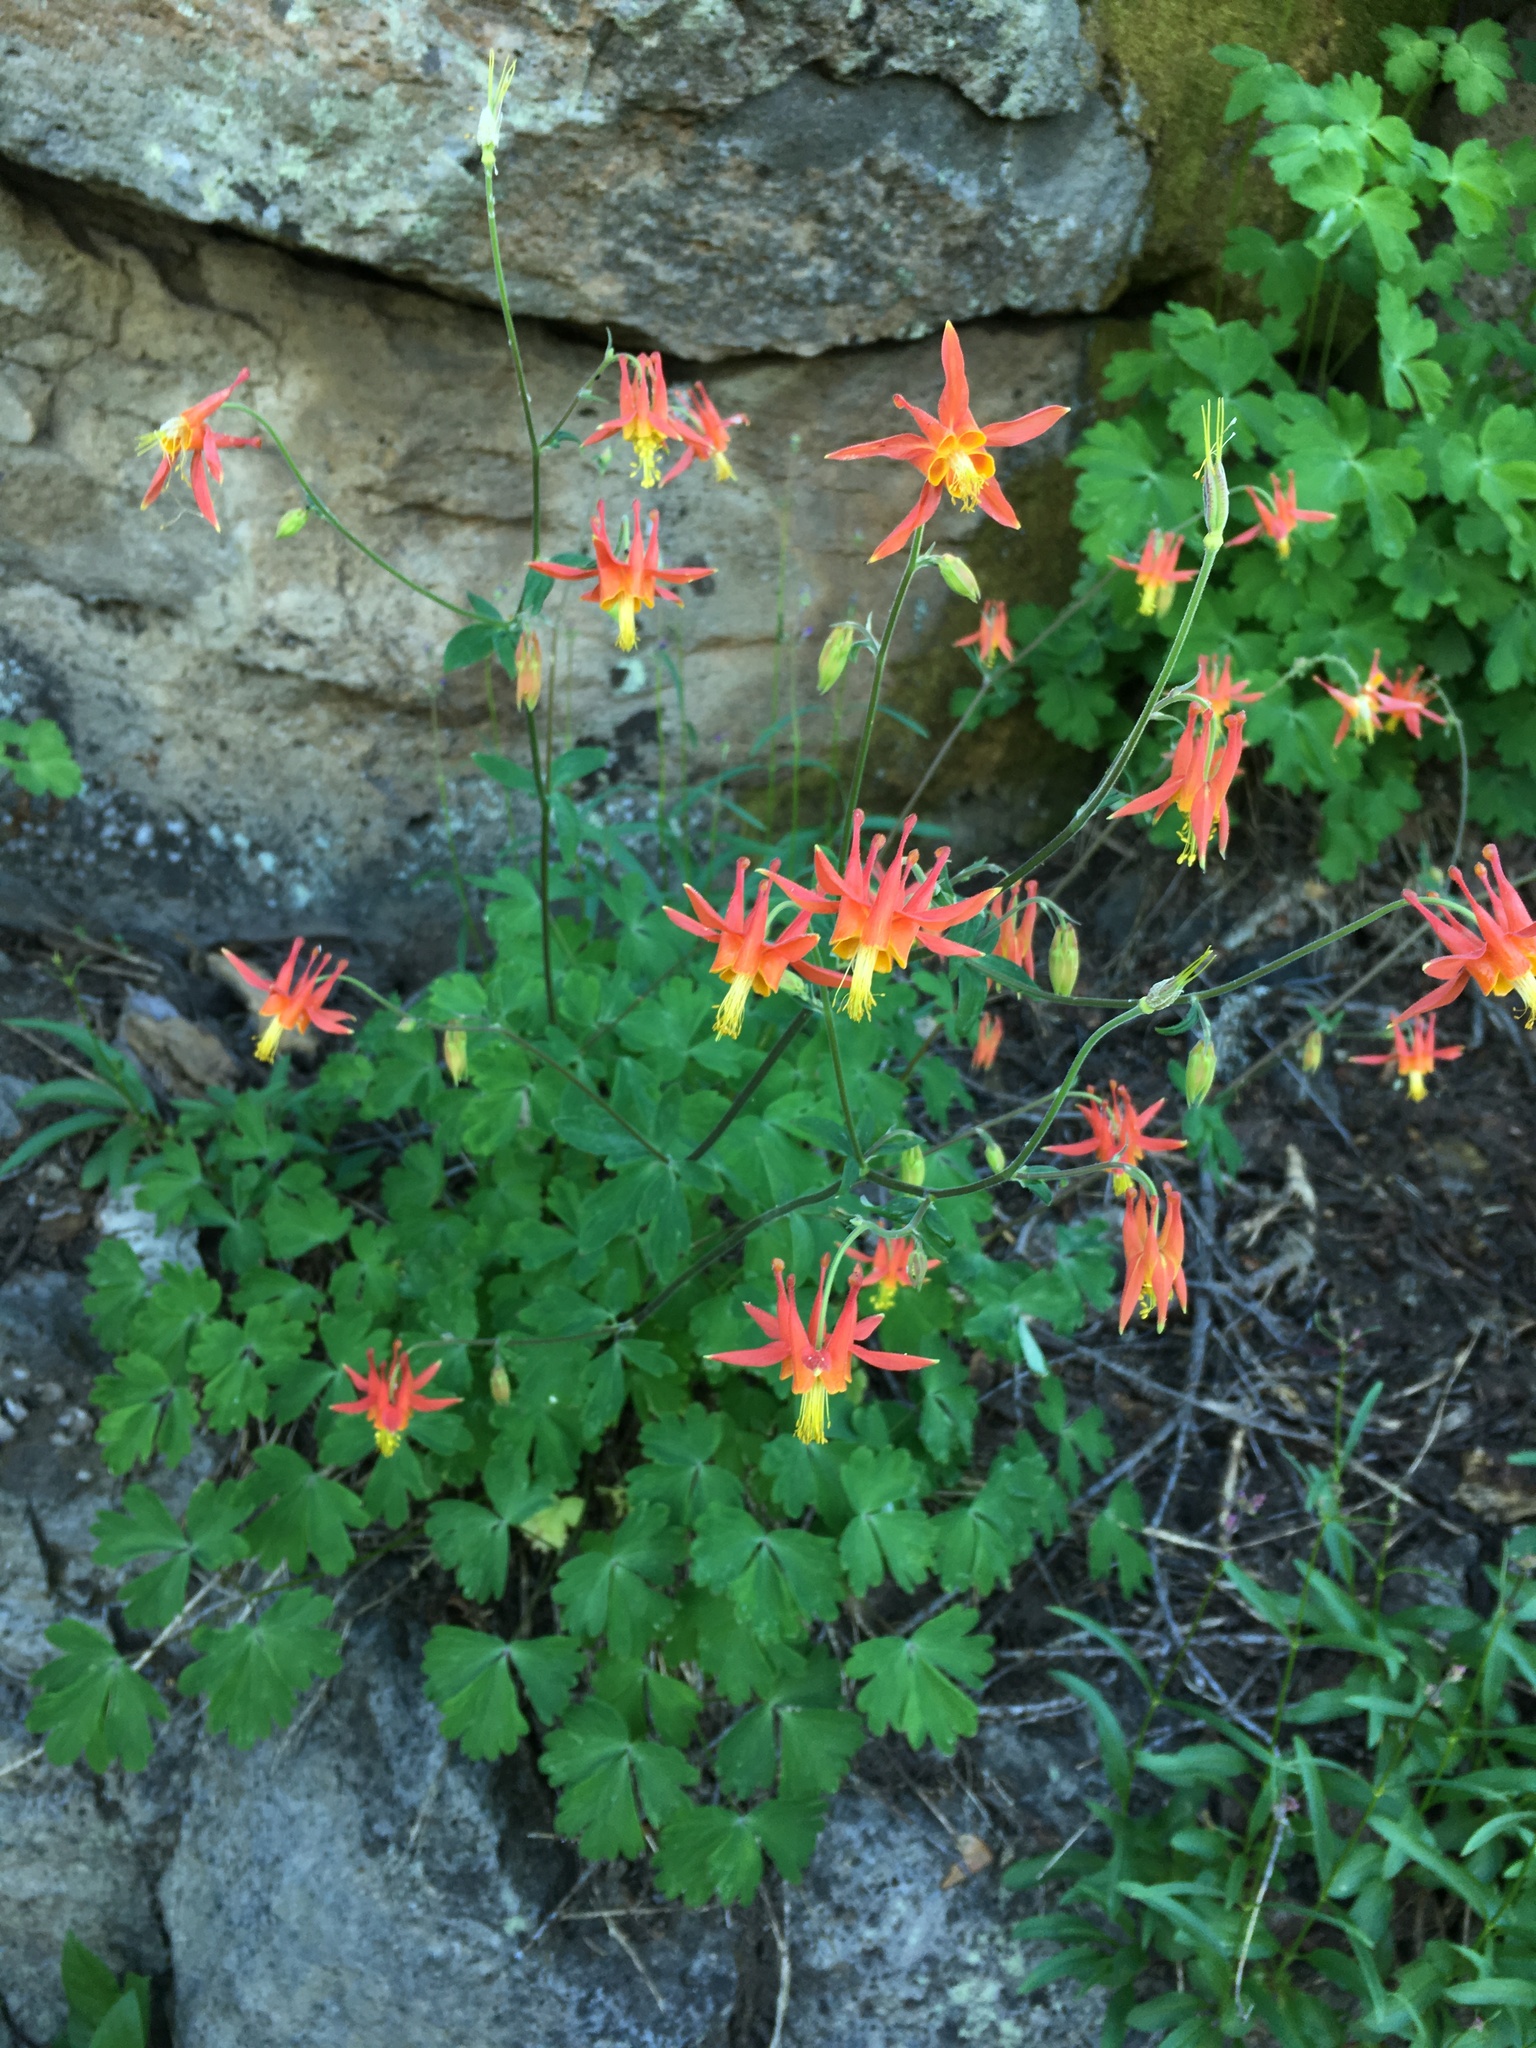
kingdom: Plantae
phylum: Tracheophyta
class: Magnoliopsida
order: Ranunculales
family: Ranunculaceae
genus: Aquilegia
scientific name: Aquilegia formosa
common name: Sitka columbine
